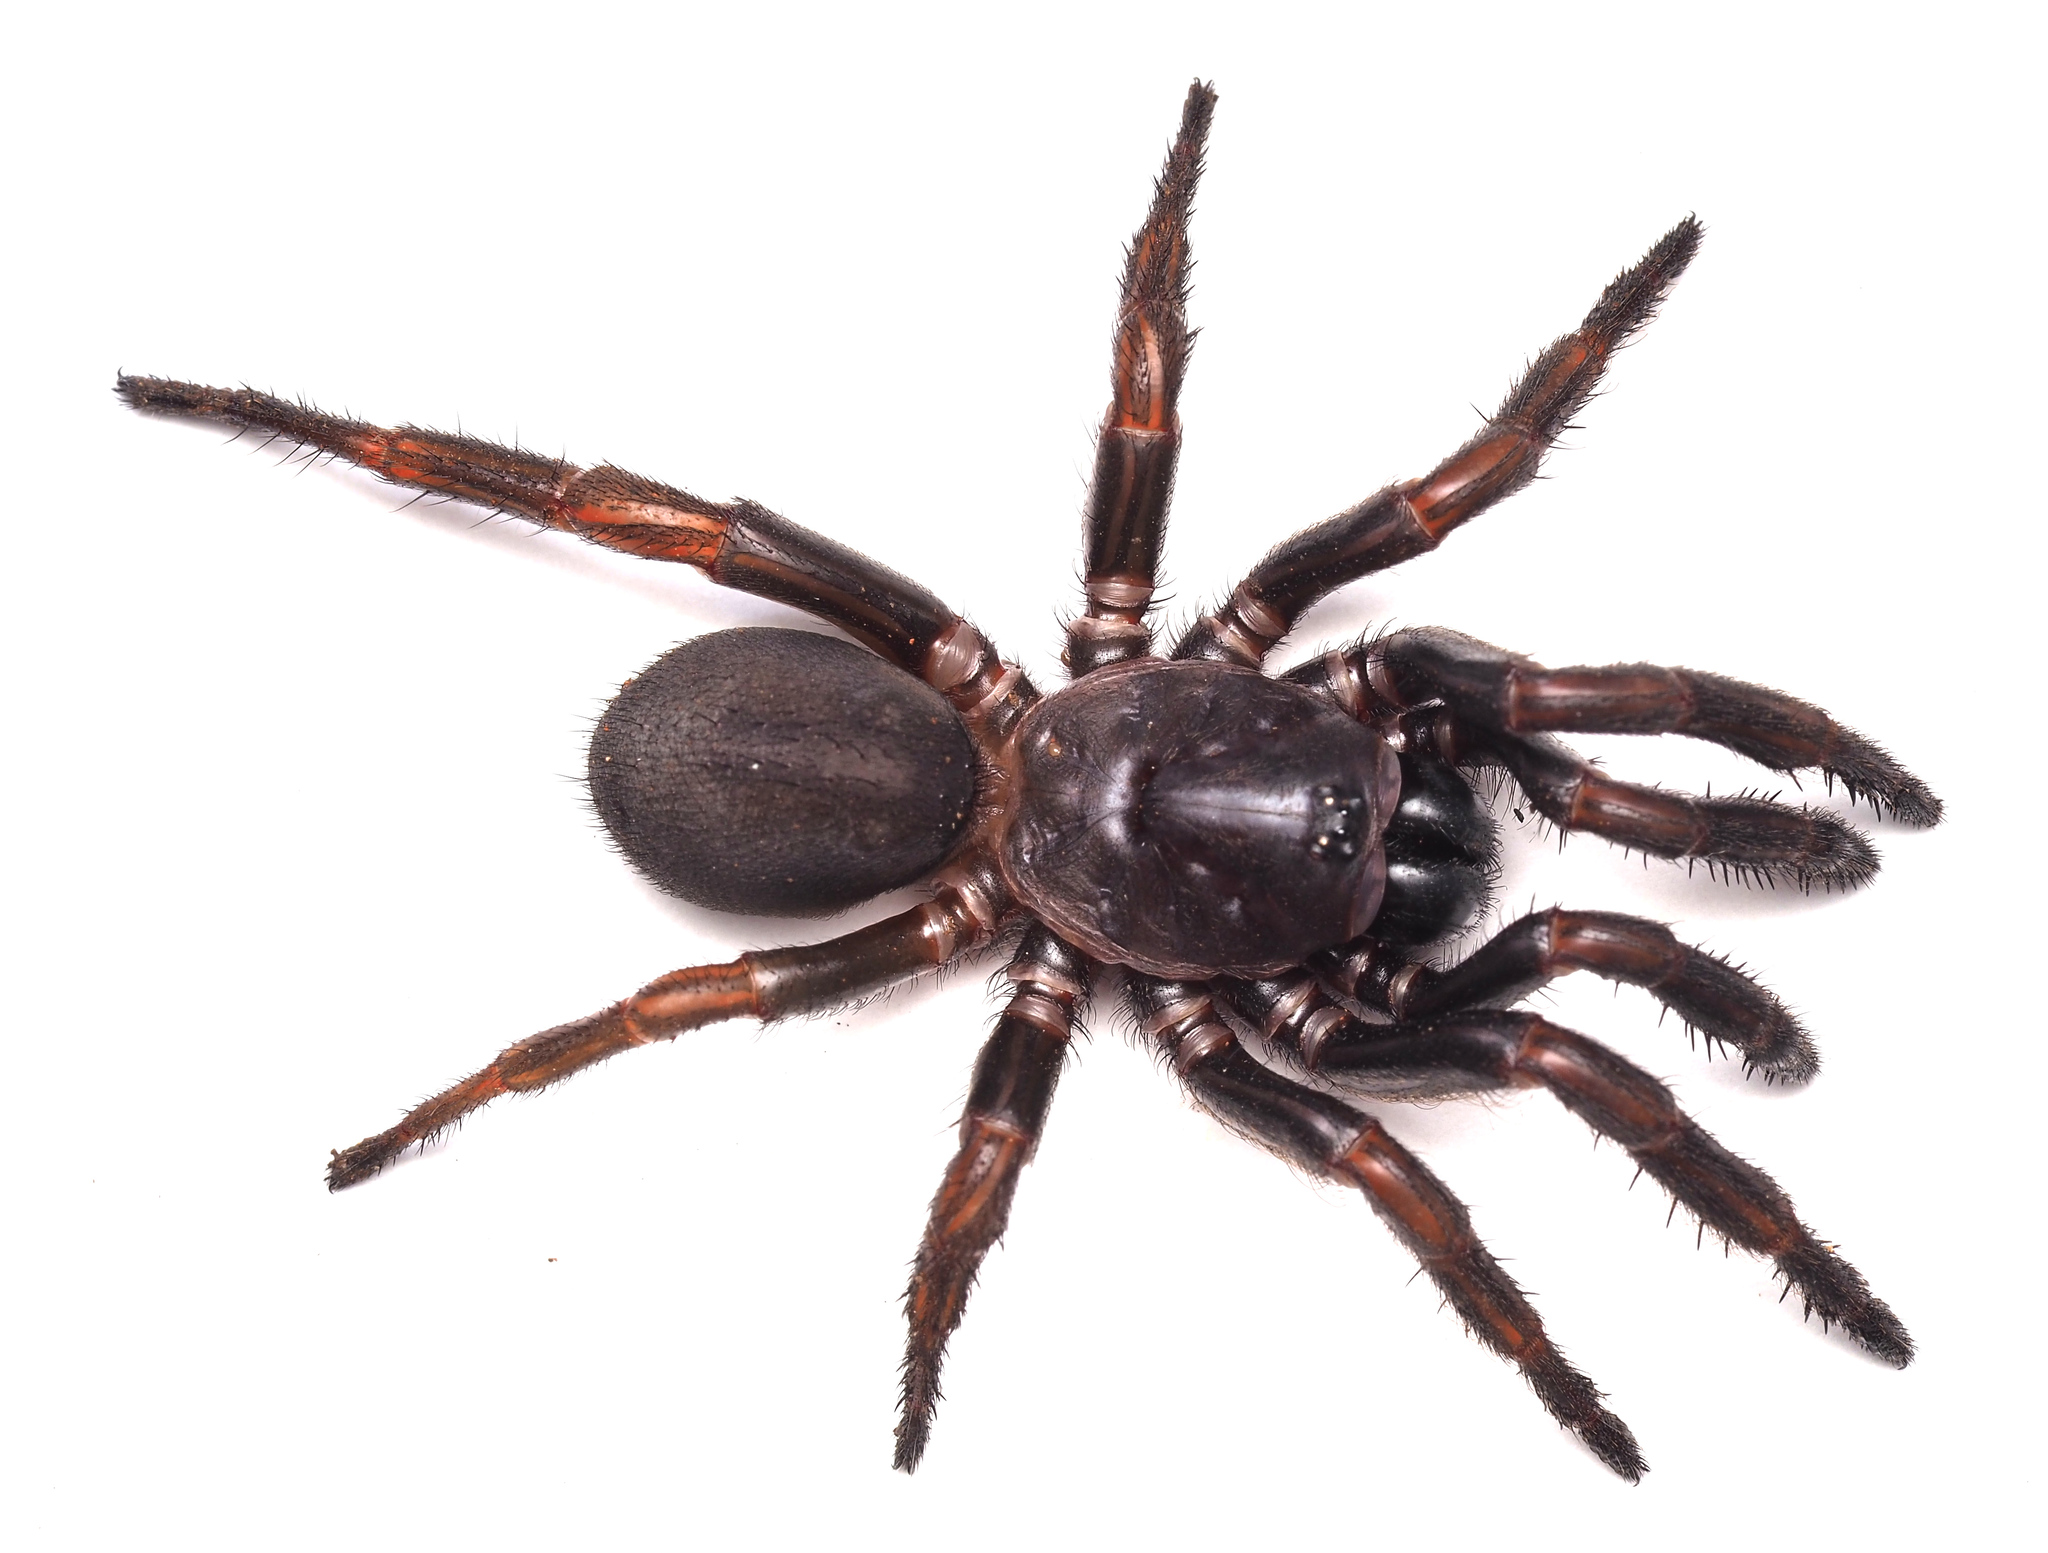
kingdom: Animalia
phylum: Arthropoda
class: Arachnida
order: Araneae
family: Idiopidae
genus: Cataxia
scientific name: Cataxia spinipectoris
